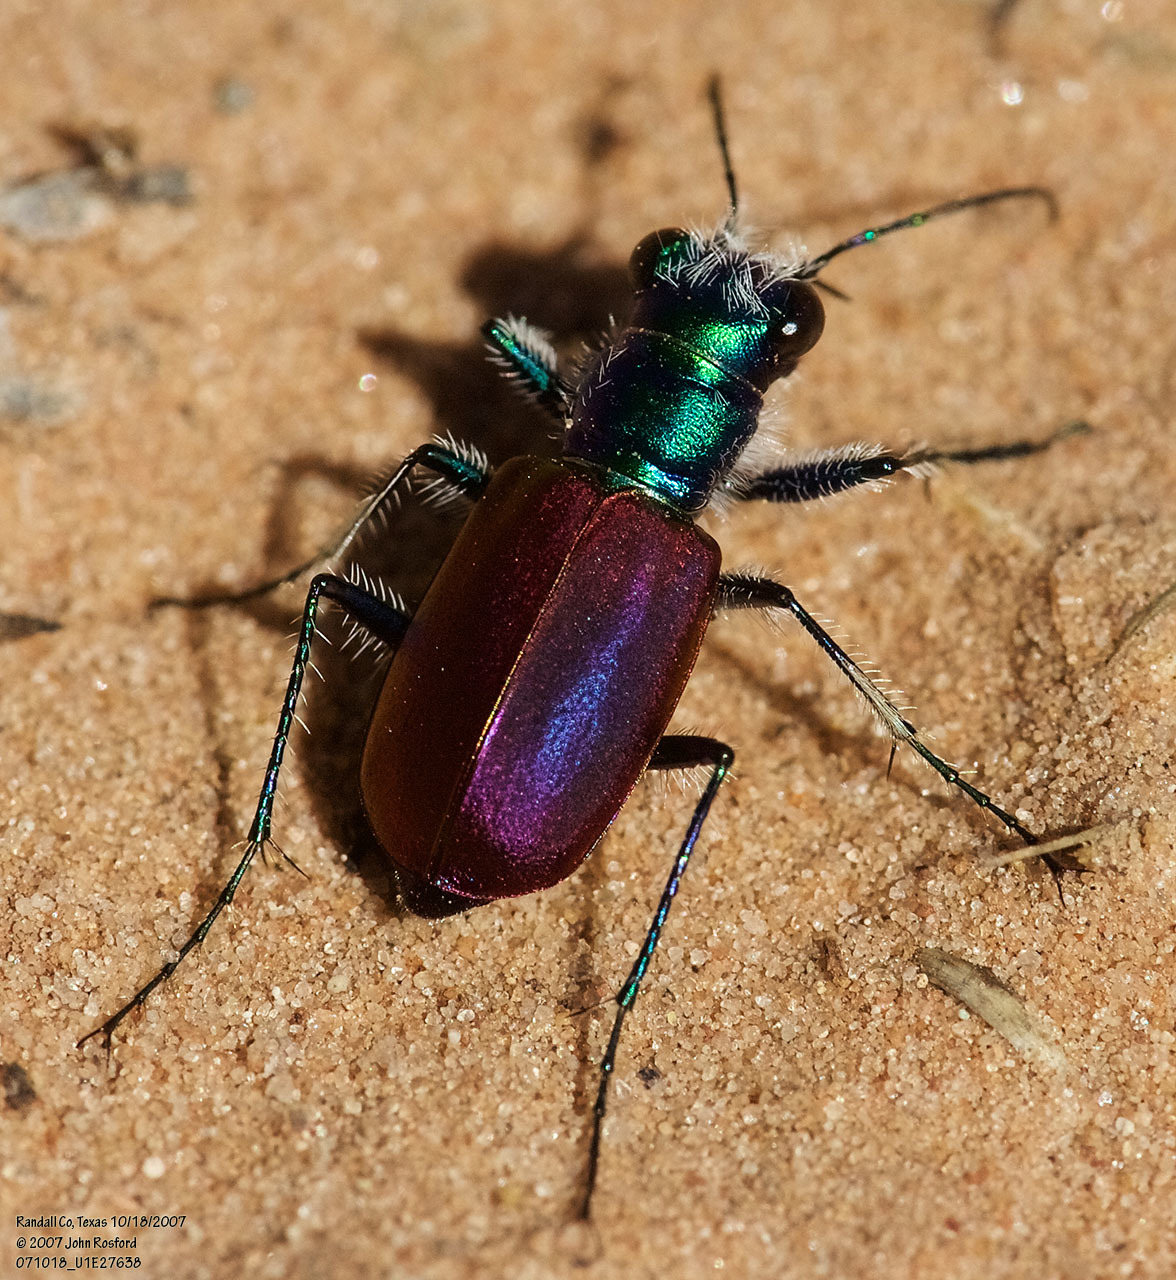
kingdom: Animalia
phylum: Arthropoda
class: Insecta
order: Coleoptera
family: Carabidae
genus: Cicindela
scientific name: Cicindela scutellaris
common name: Festive tiger beetle
